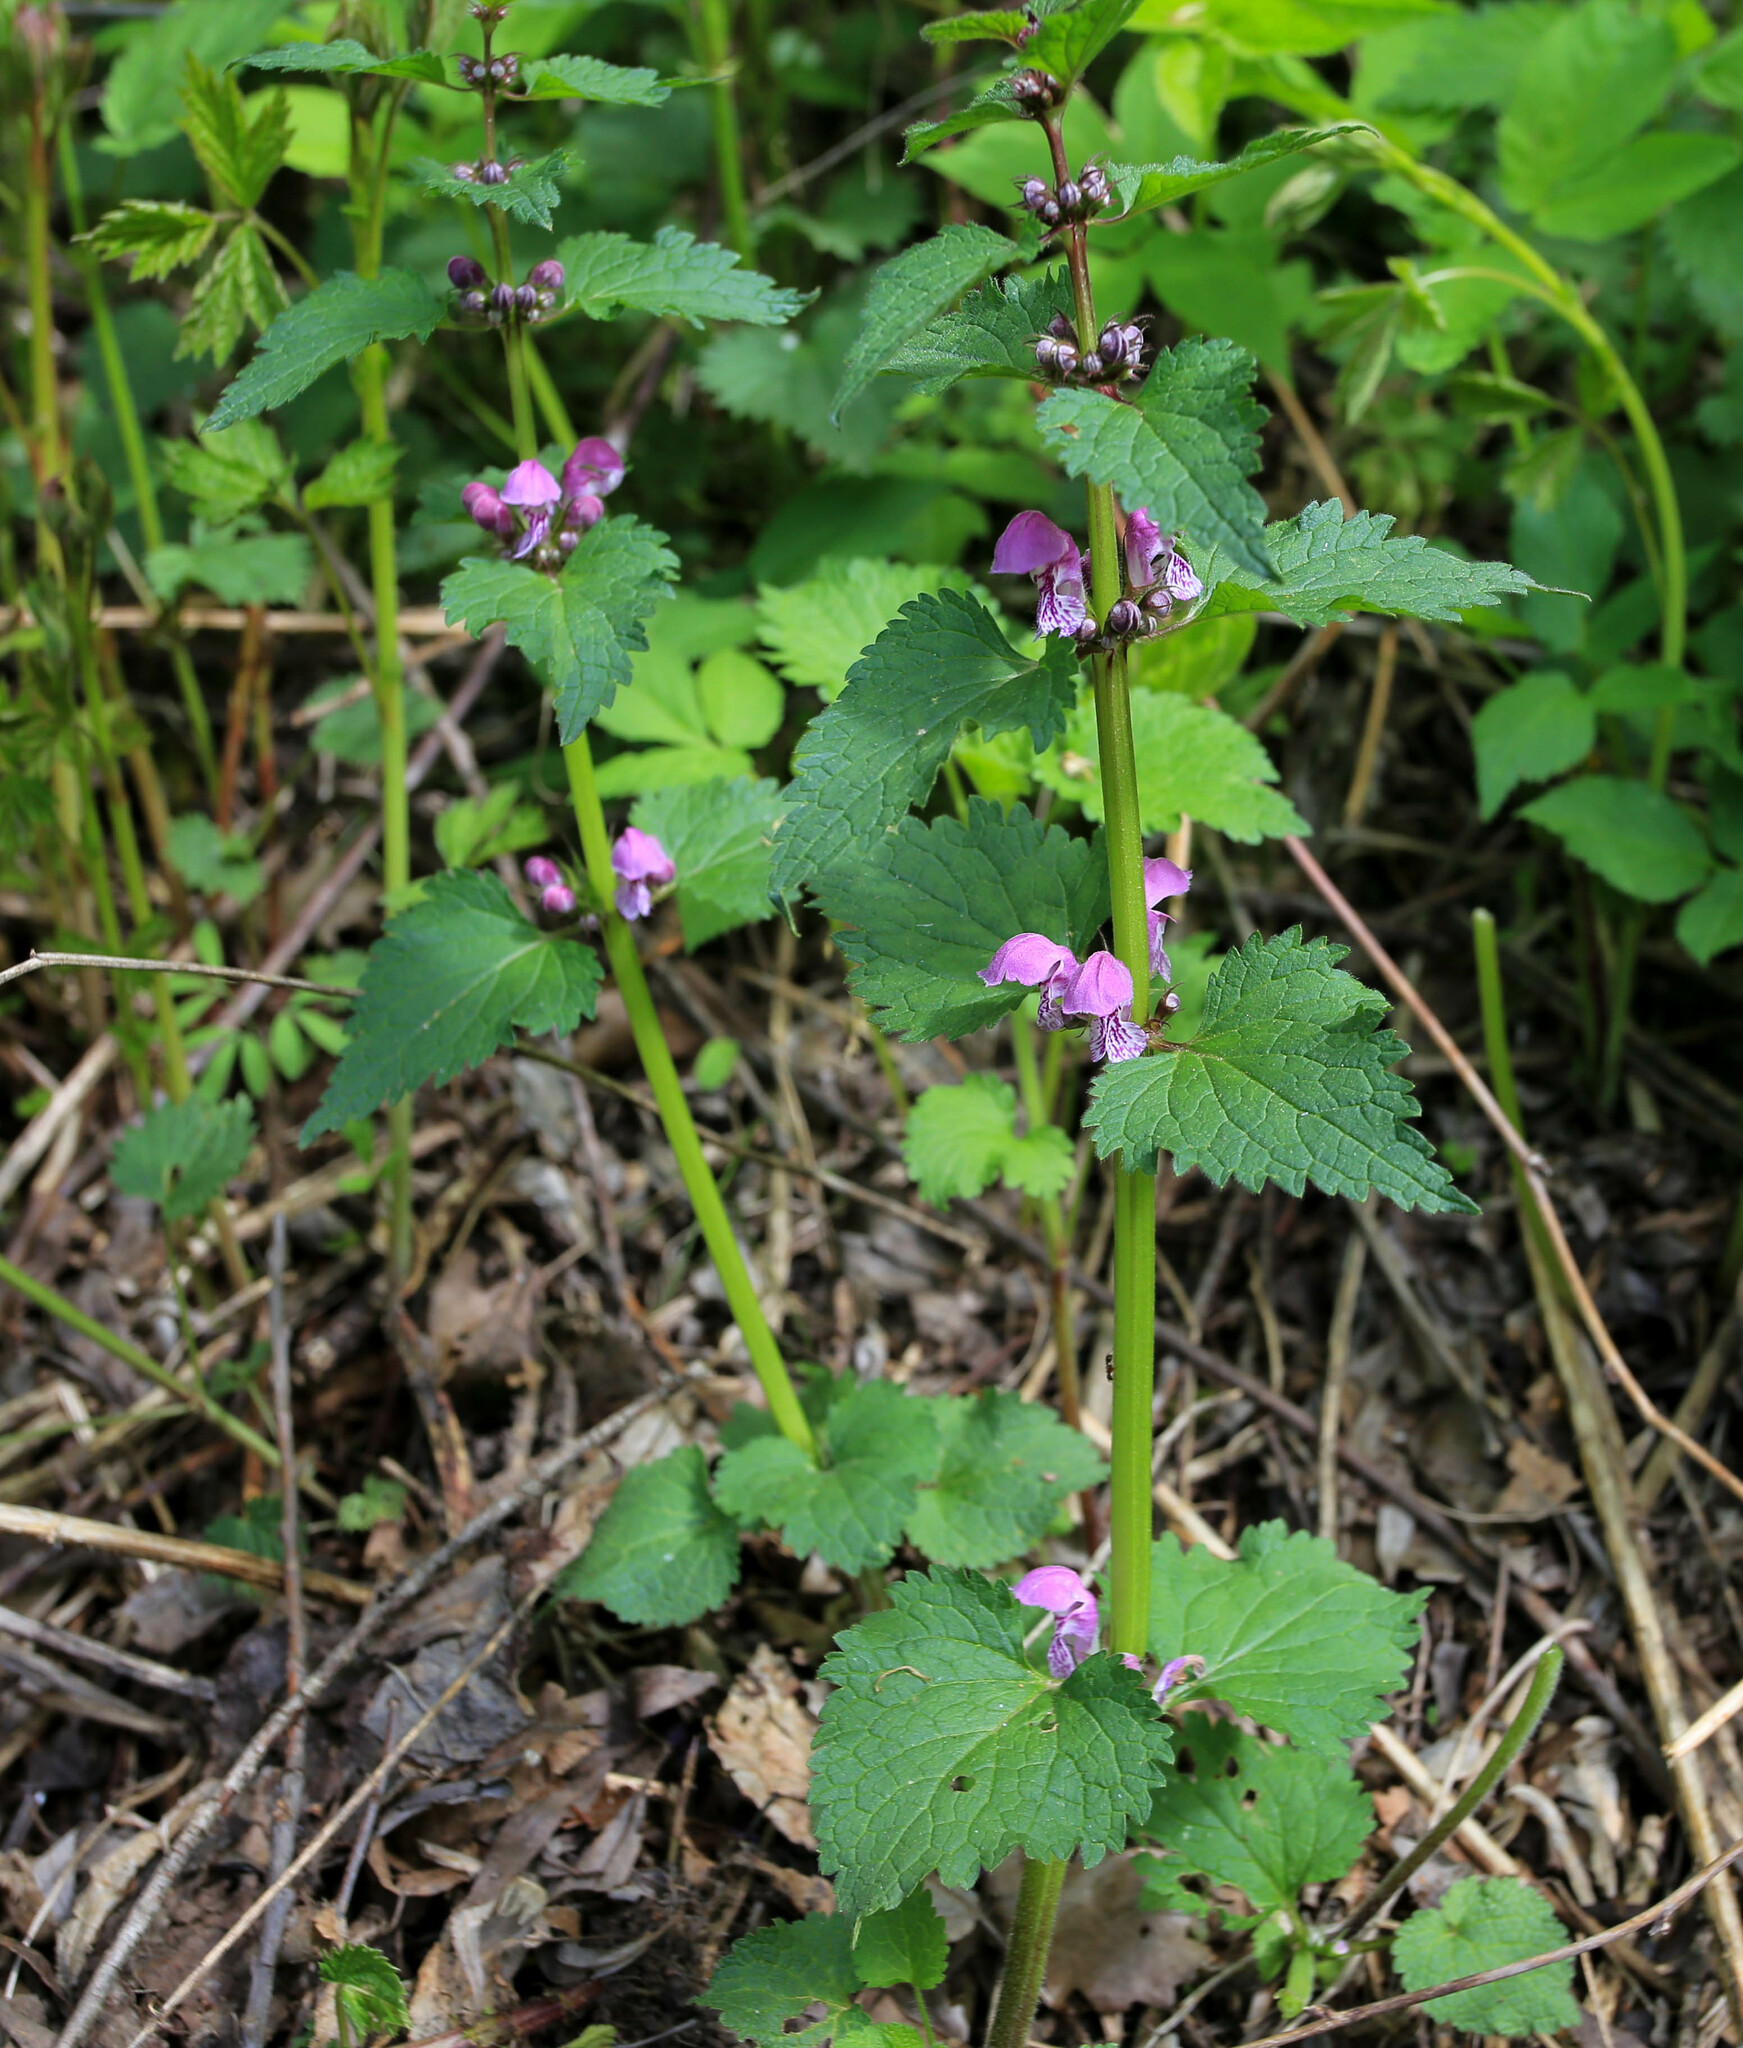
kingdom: Plantae
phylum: Tracheophyta
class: Magnoliopsida
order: Lamiales
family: Lamiaceae
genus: Lamium
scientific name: Lamium maculatum
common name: Spotted dead-nettle
